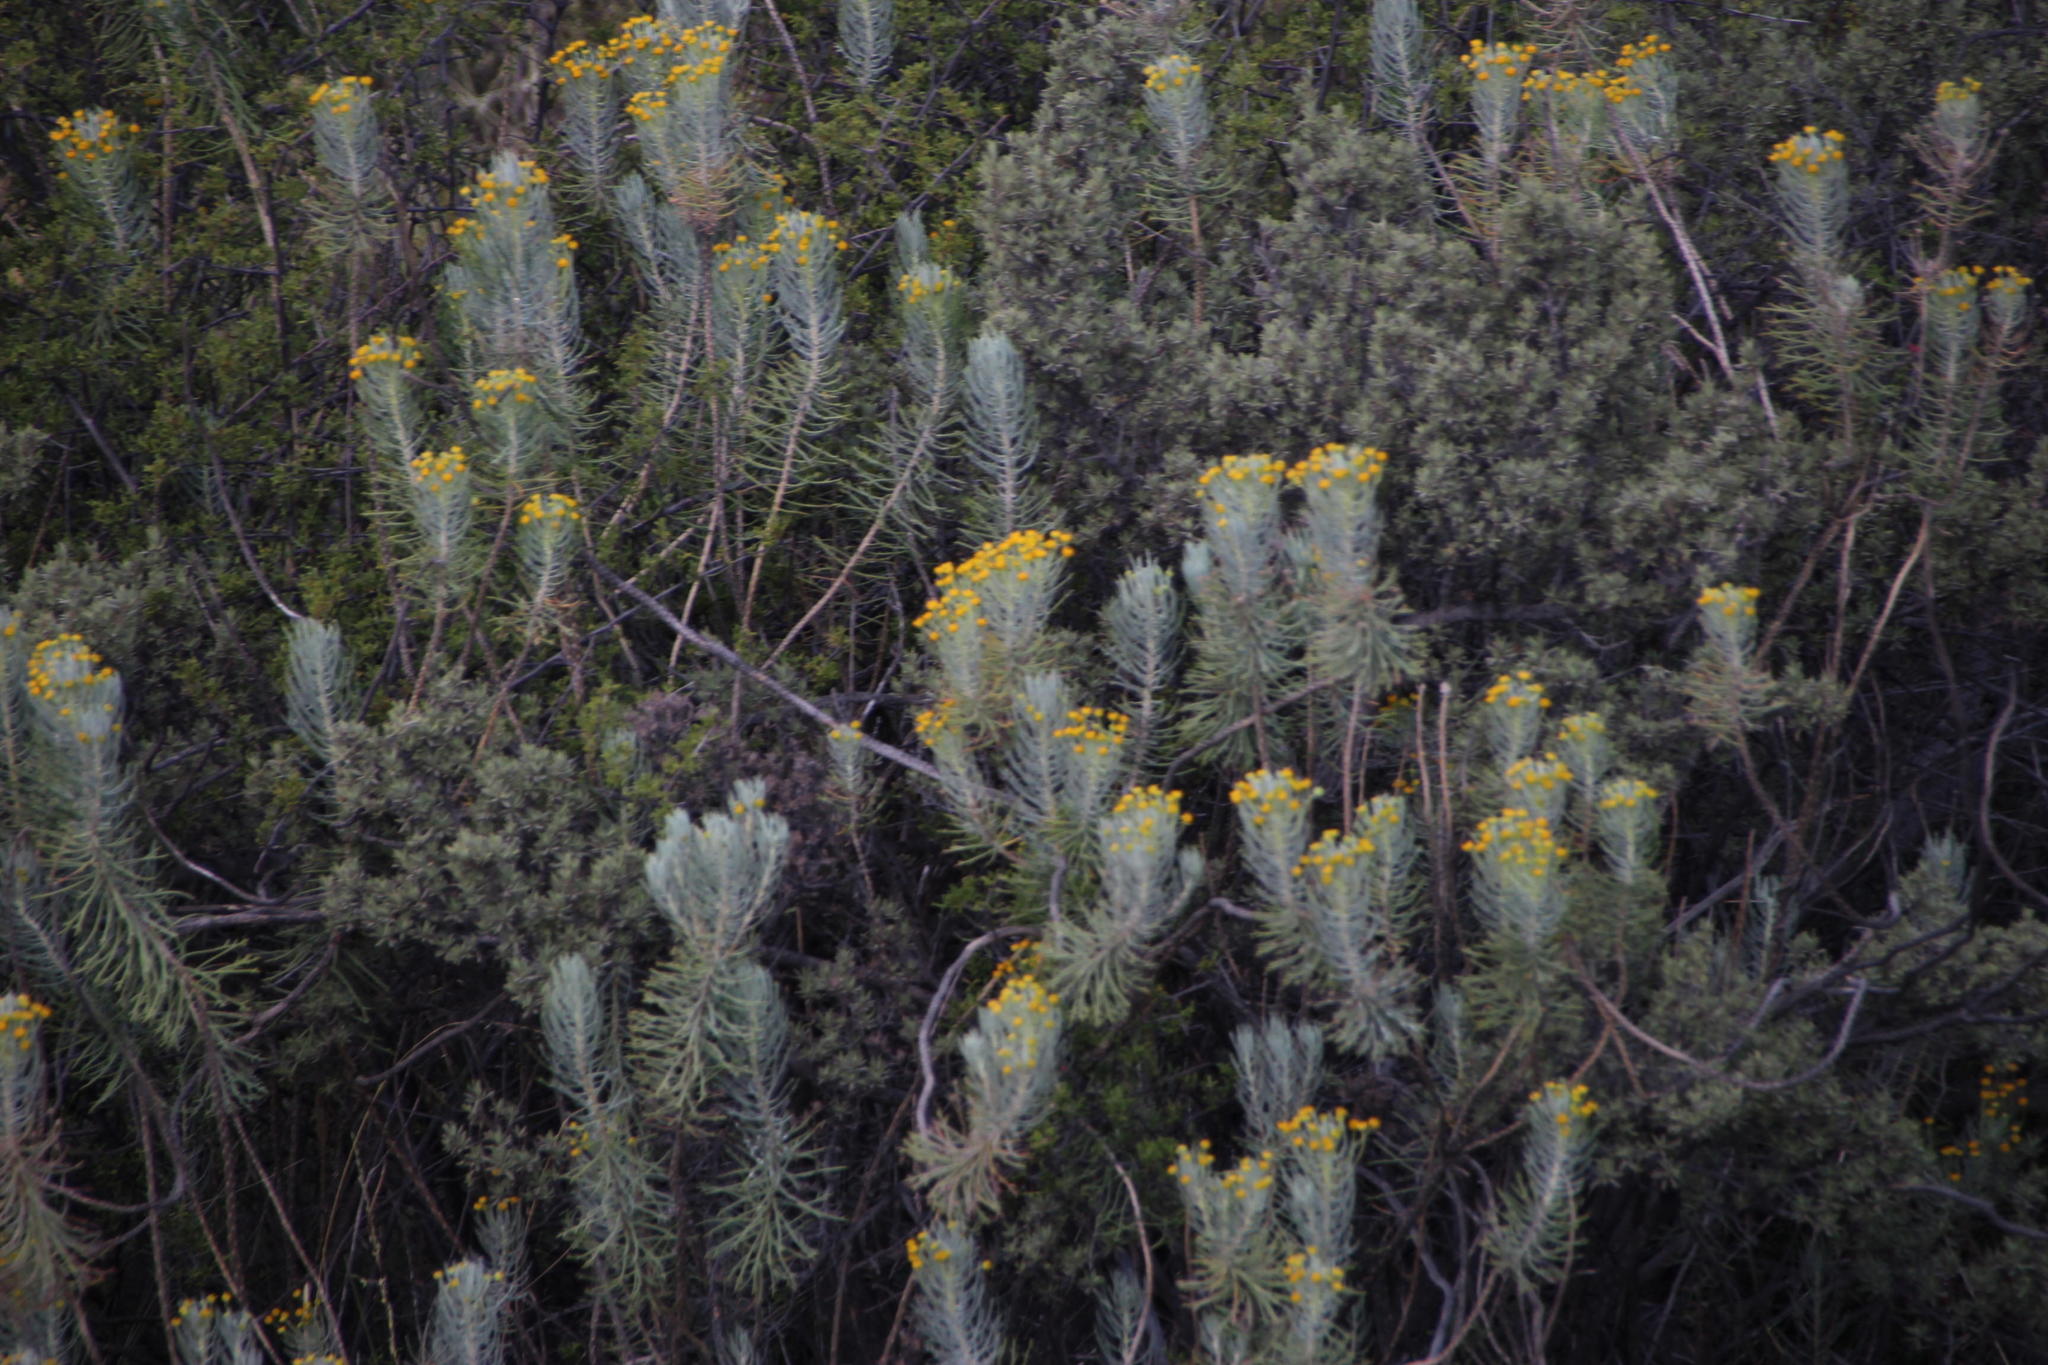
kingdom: Plantae
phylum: Tracheophyta
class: Magnoliopsida
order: Asterales
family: Asteraceae
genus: Euryops
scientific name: Euryops tenuissimus
